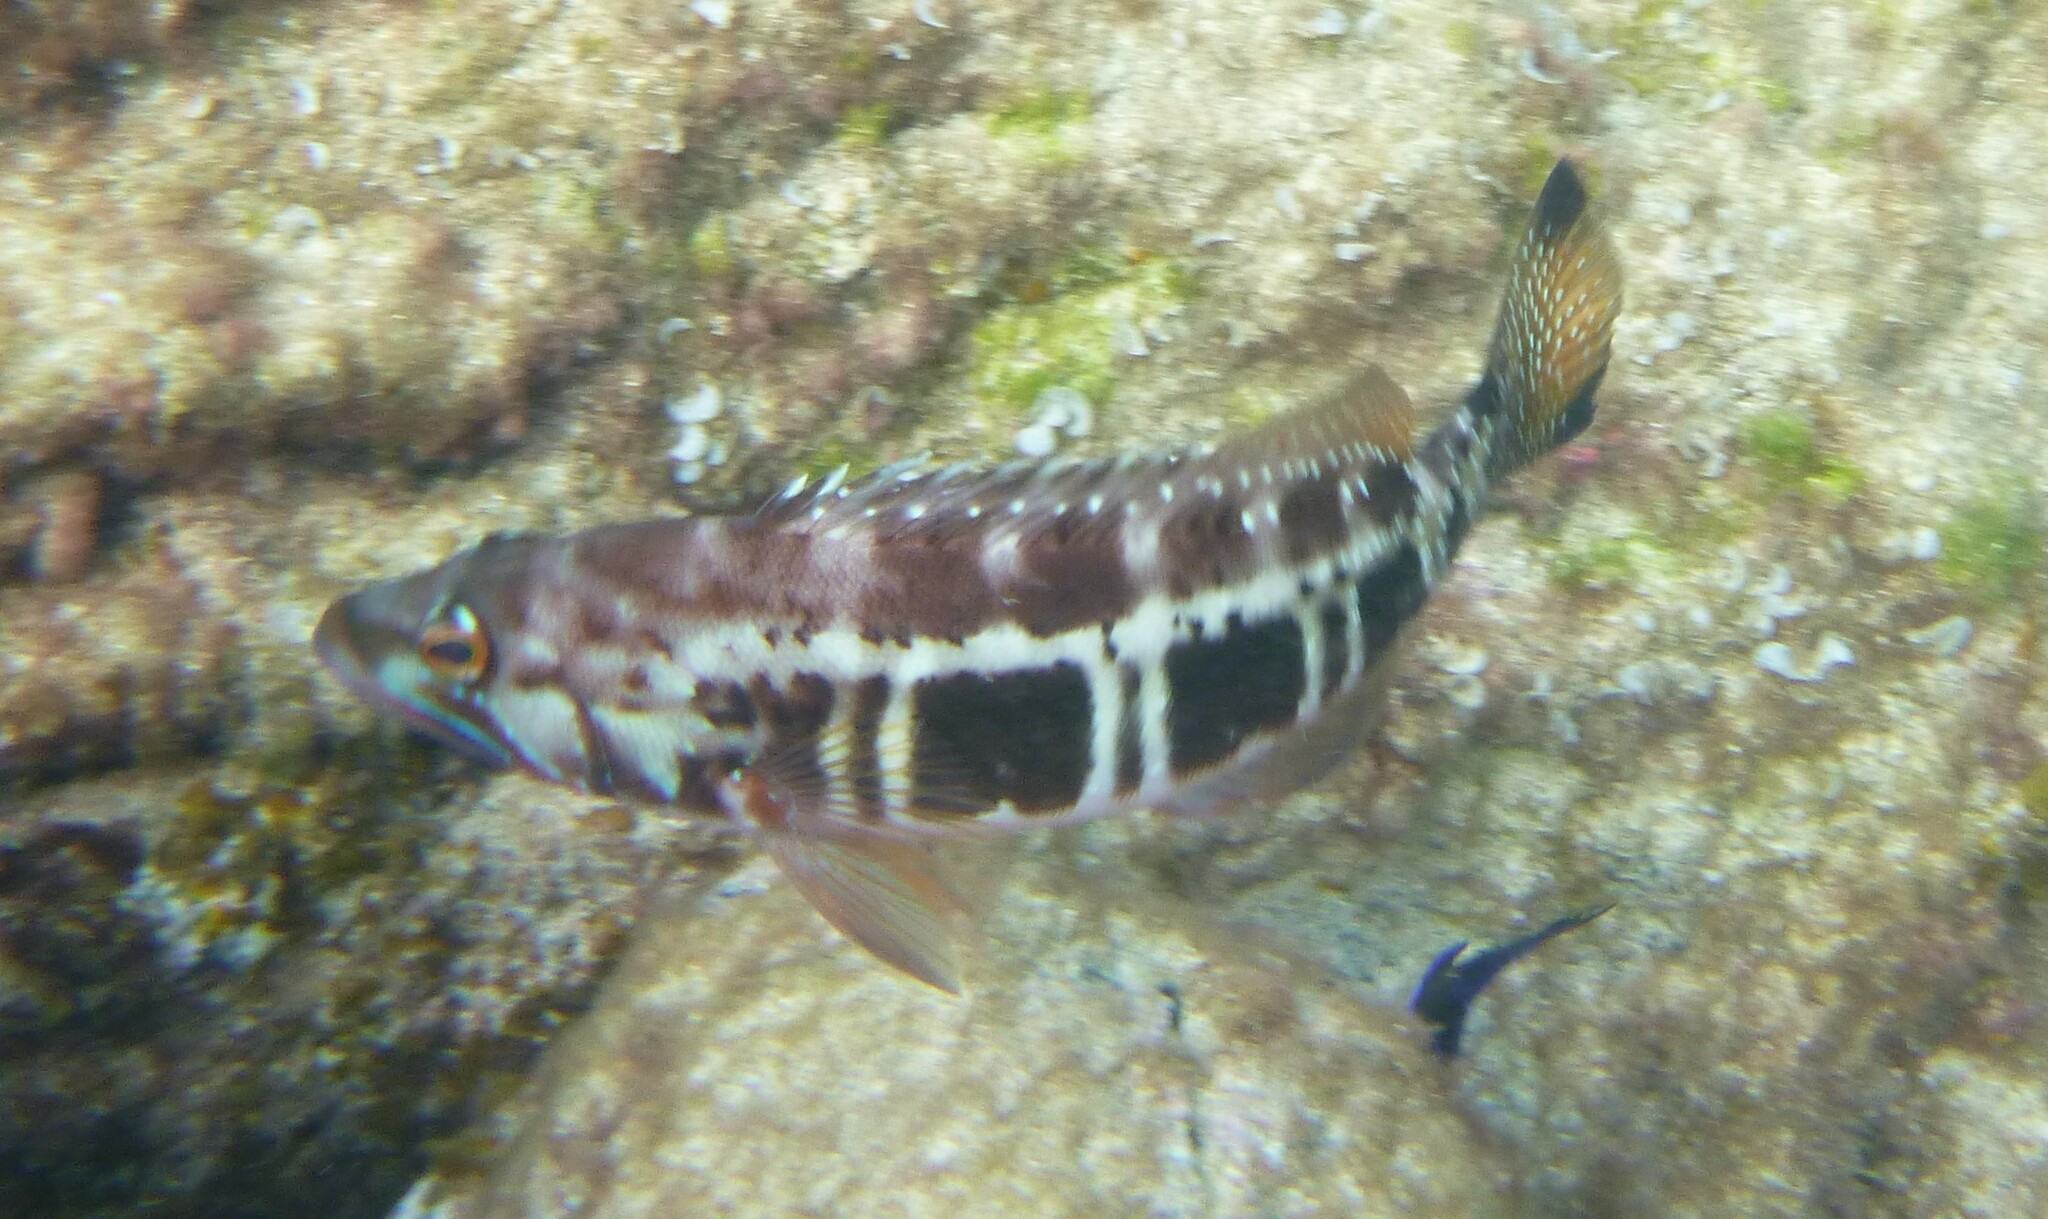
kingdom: Animalia
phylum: Chordata
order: Perciformes
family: Serranidae
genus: Serranus
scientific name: Serranus atricauda
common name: Blacktail comber
